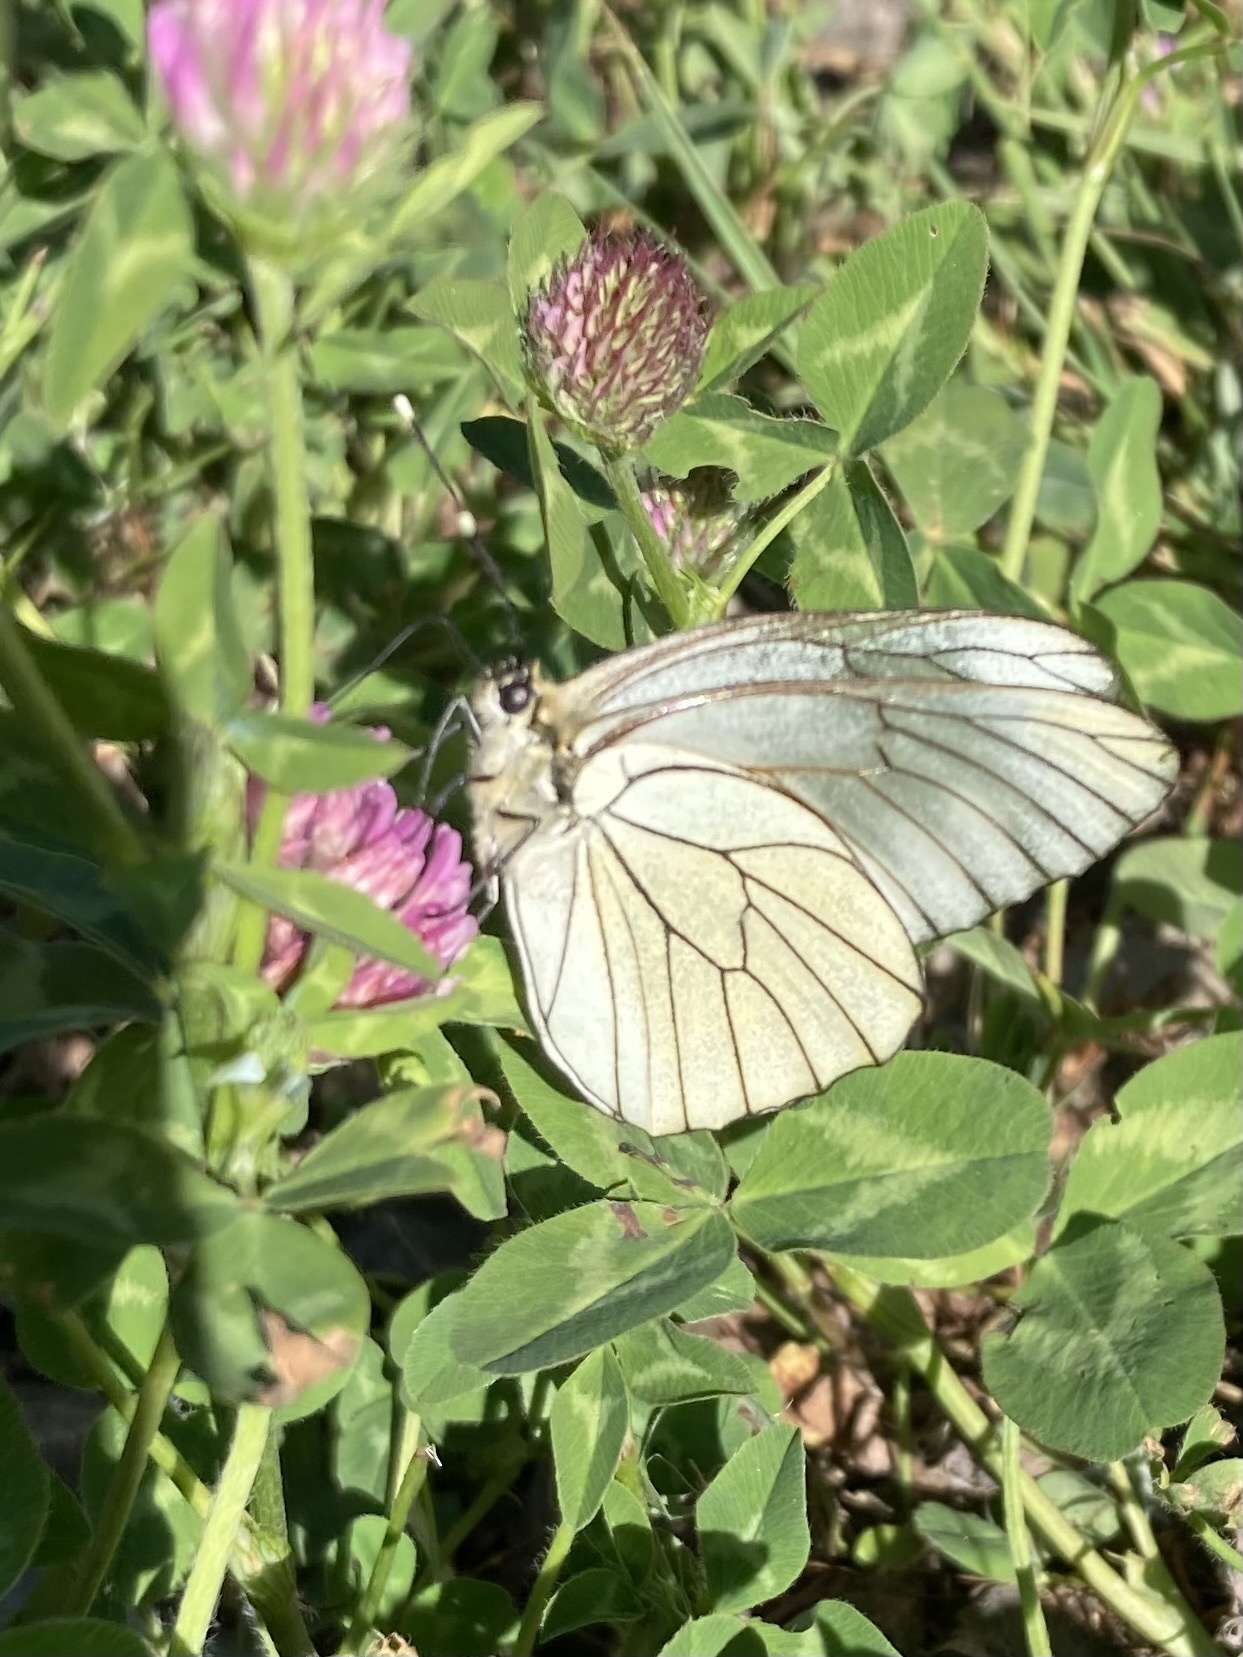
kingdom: Animalia
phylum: Arthropoda
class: Insecta
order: Lepidoptera
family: Pieridae
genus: Aporia
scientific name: Aporia crataegi
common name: Black-veined white
